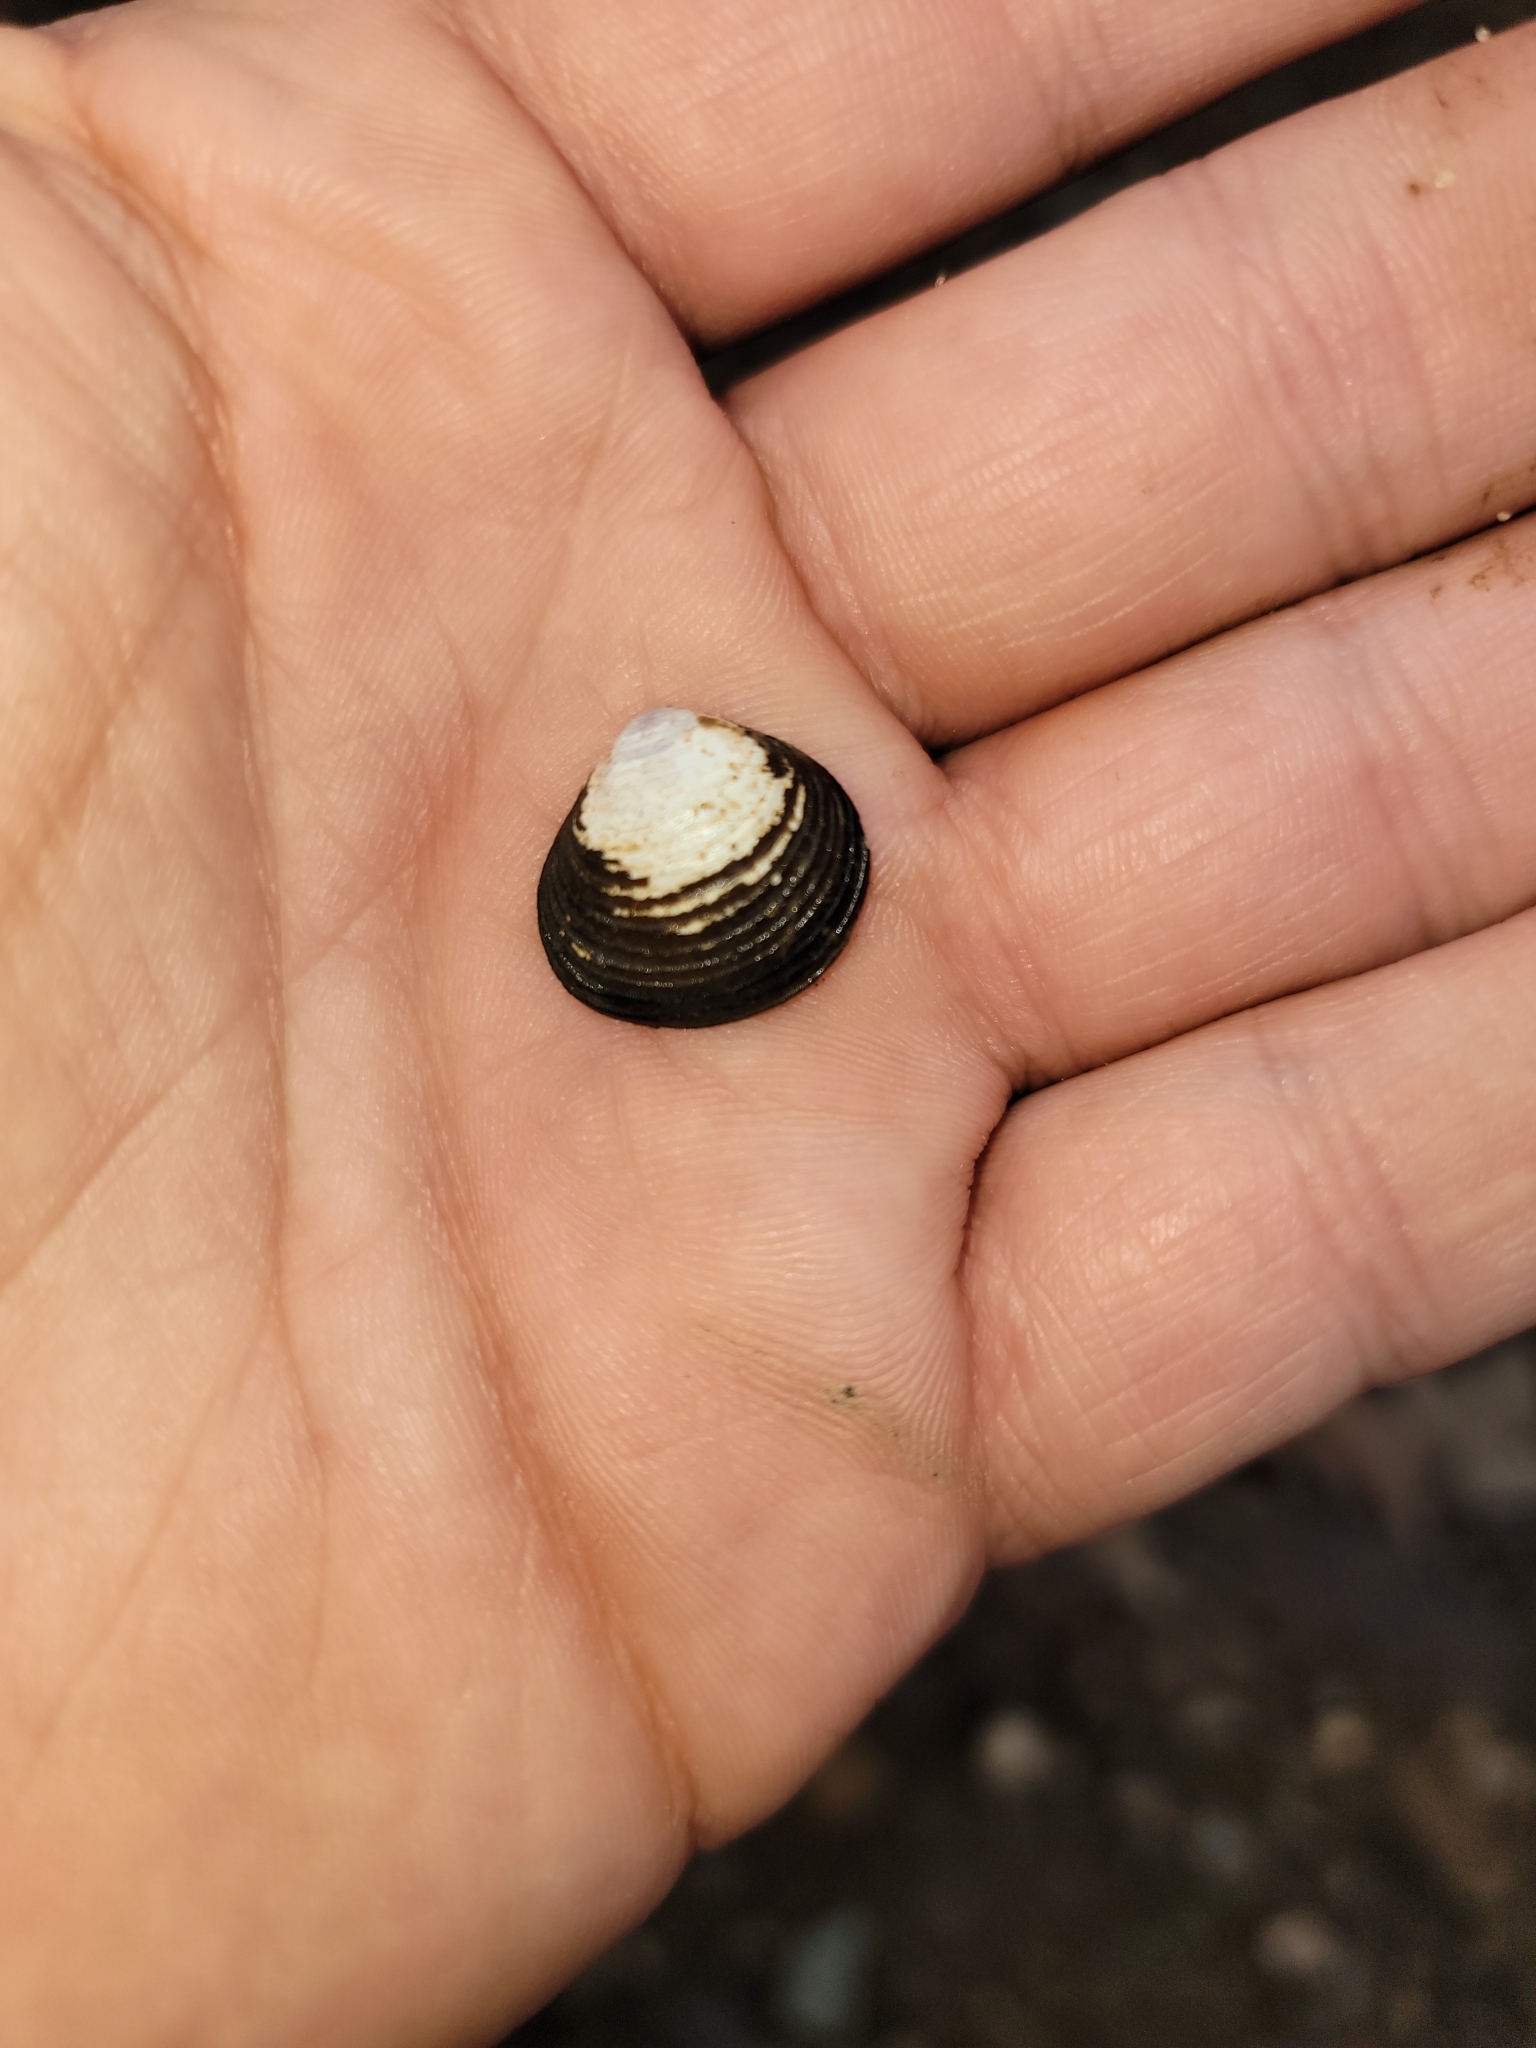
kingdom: Animalia
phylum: Mollusca
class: Bivalvia
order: Venerida
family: Cyrenidae
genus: Corbicula
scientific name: Corbicula fluminea
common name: Asian clam
